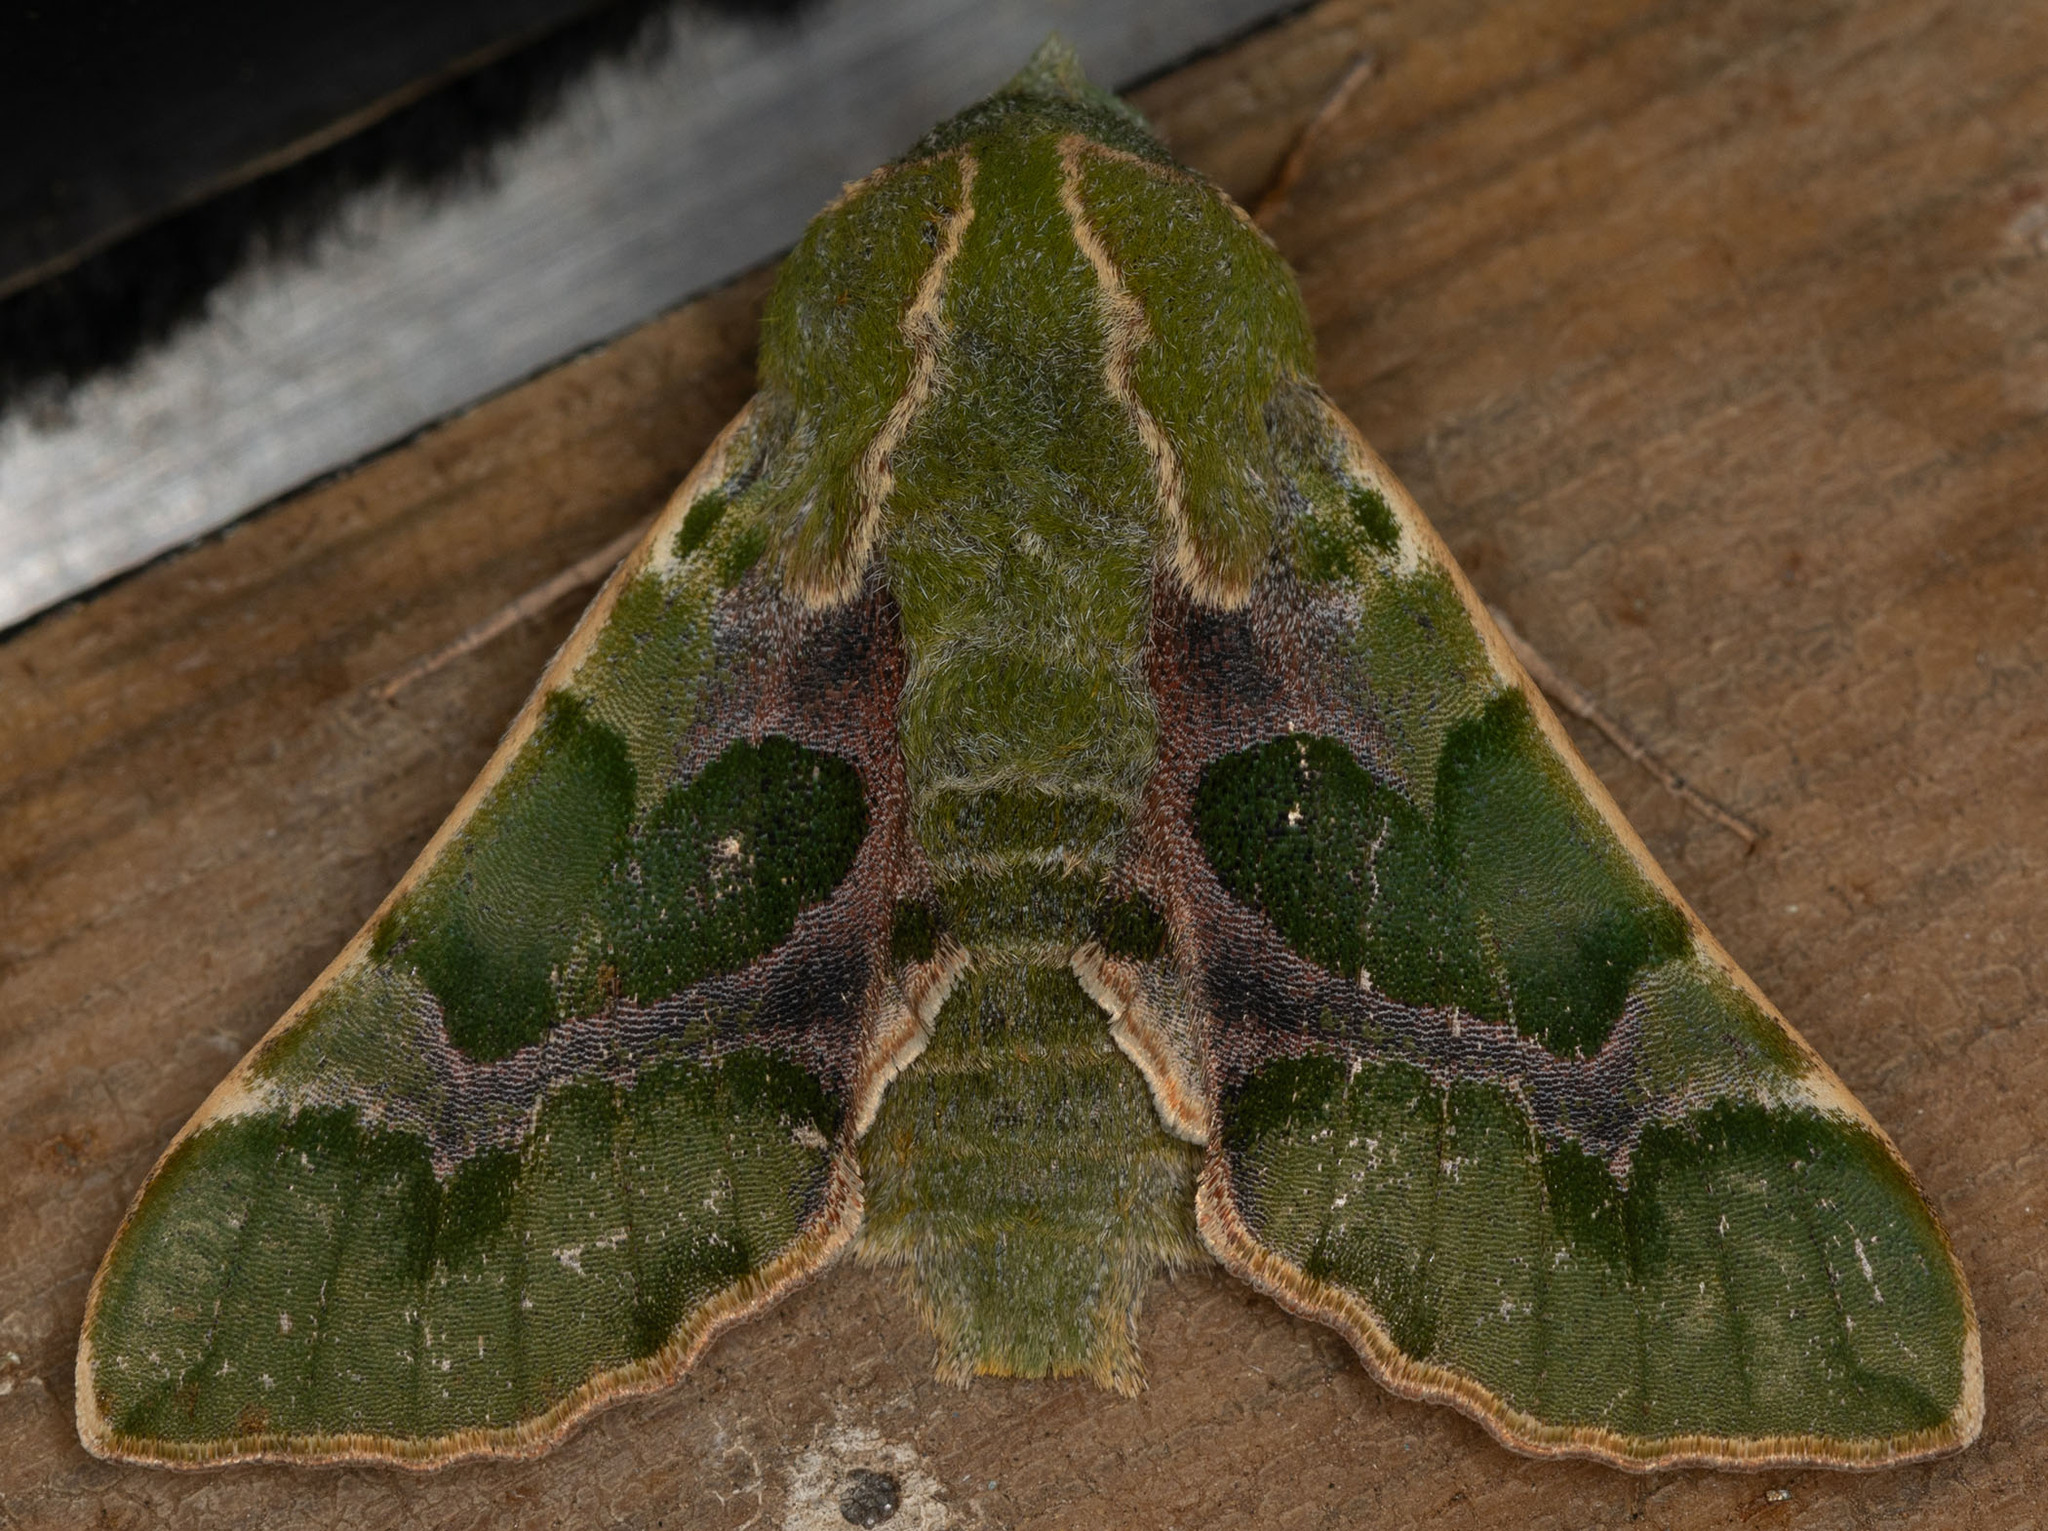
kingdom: Animalia
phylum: Arthropoda
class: Insecta
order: Lepidoptera
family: Sphingidae
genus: Proserpinus
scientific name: Proserpinus lucidus
